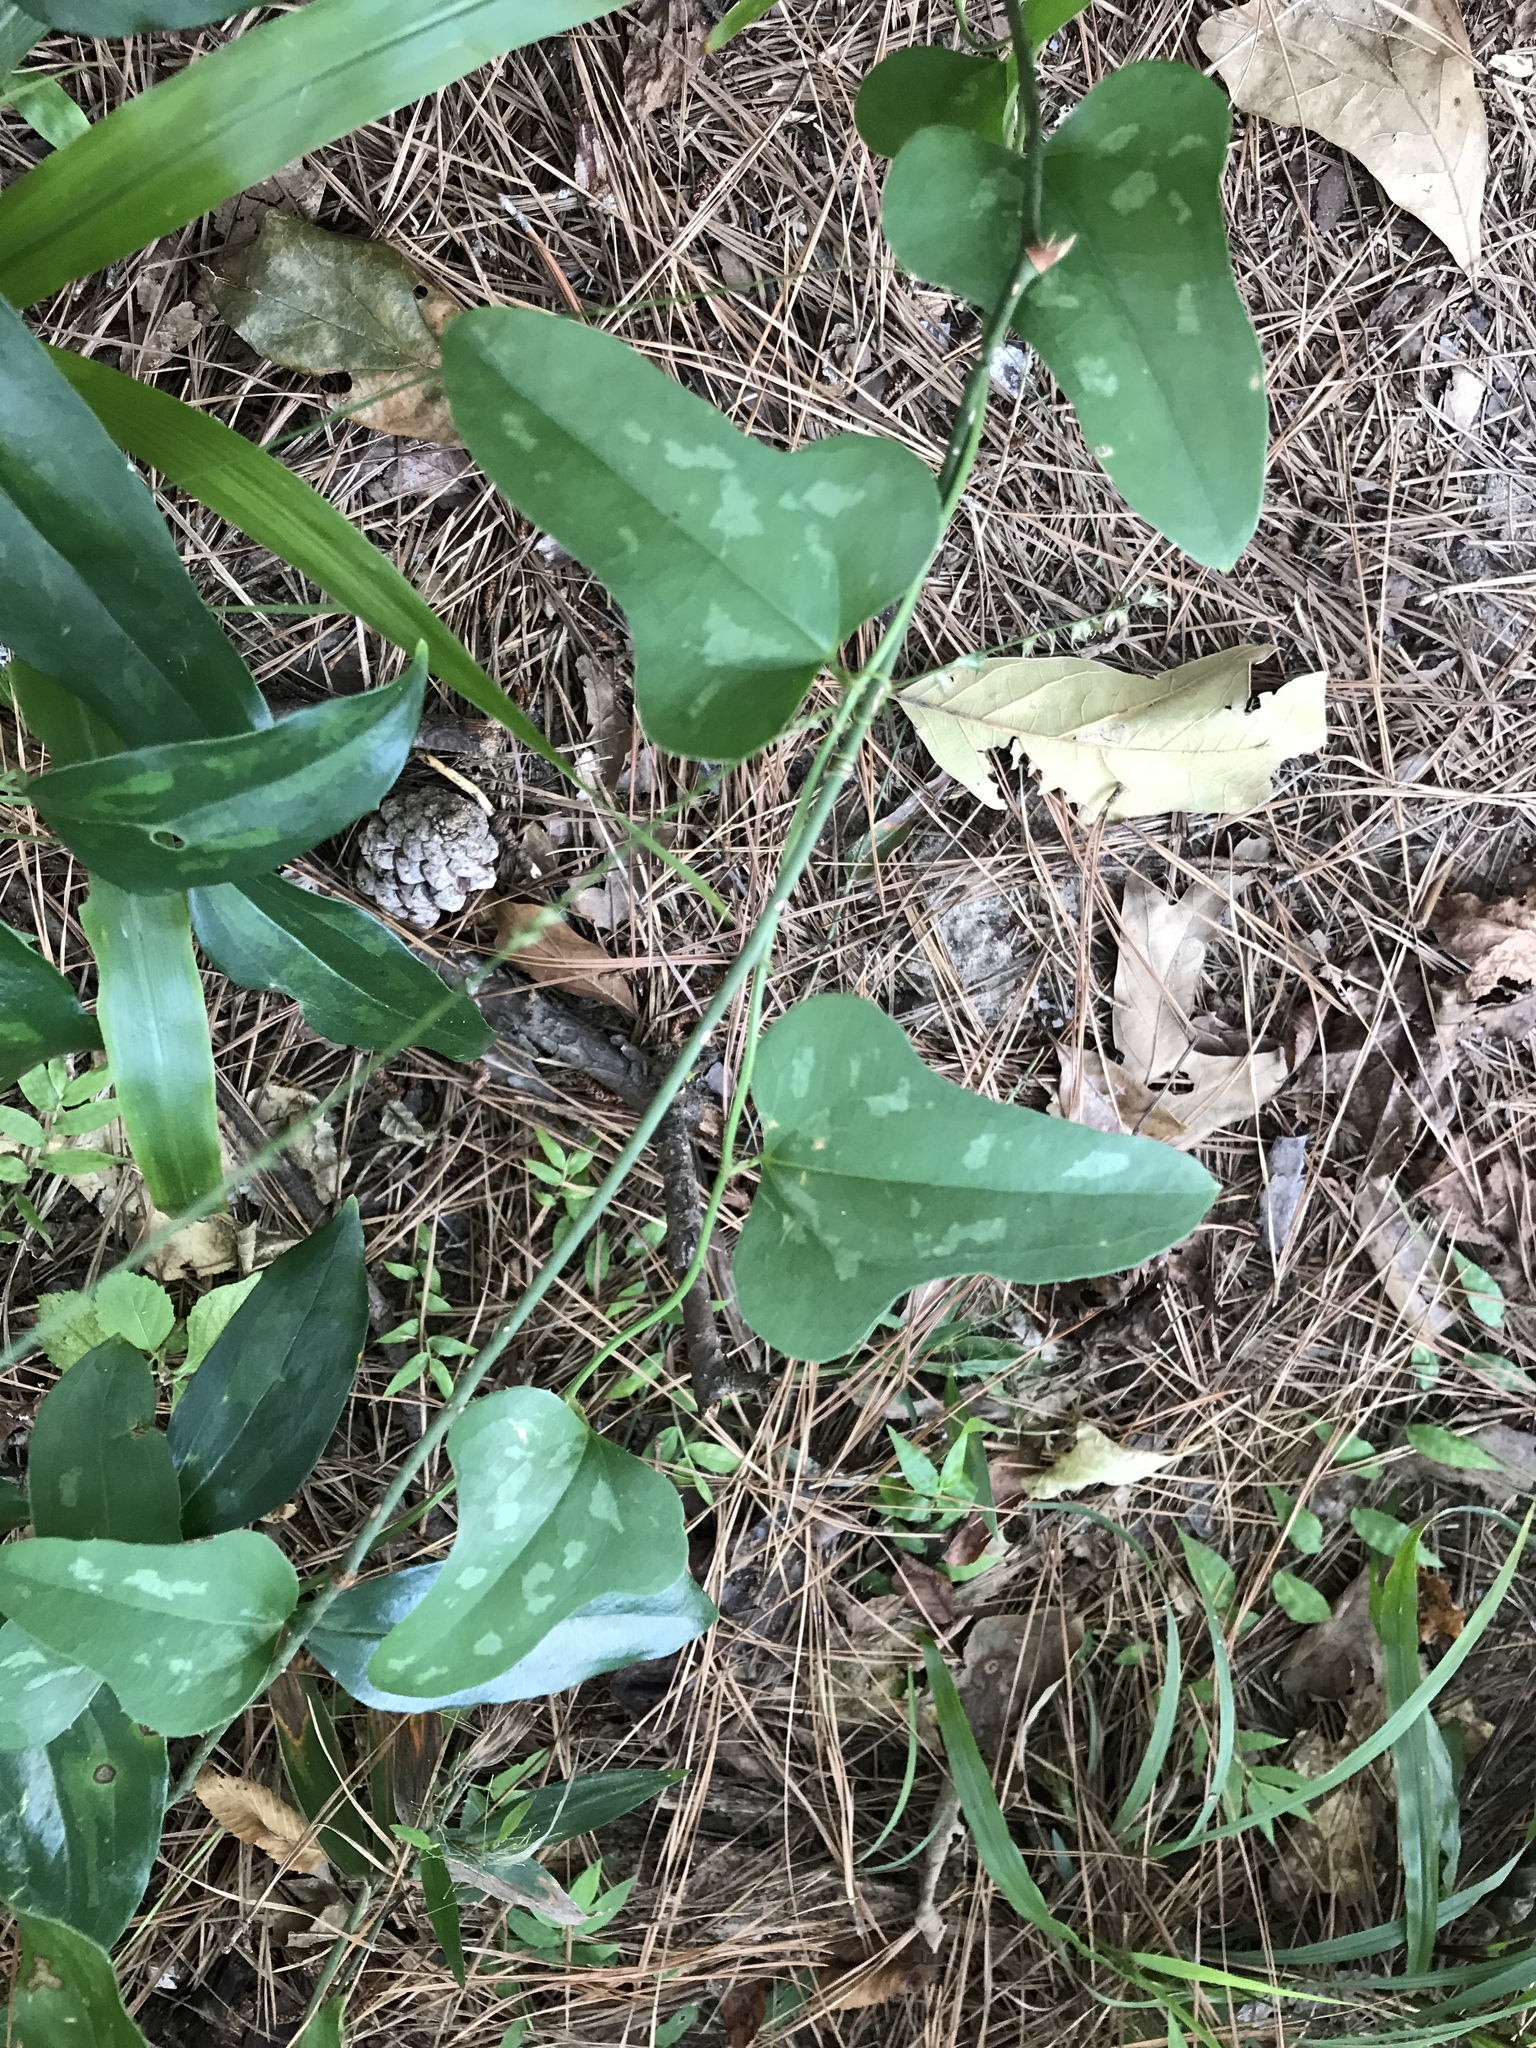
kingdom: Plantae
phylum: Tracheophyta
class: Liliopsida
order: Liliales
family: Smilacaceae
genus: Smilax
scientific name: Smilax bona-nox
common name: Catbrier
